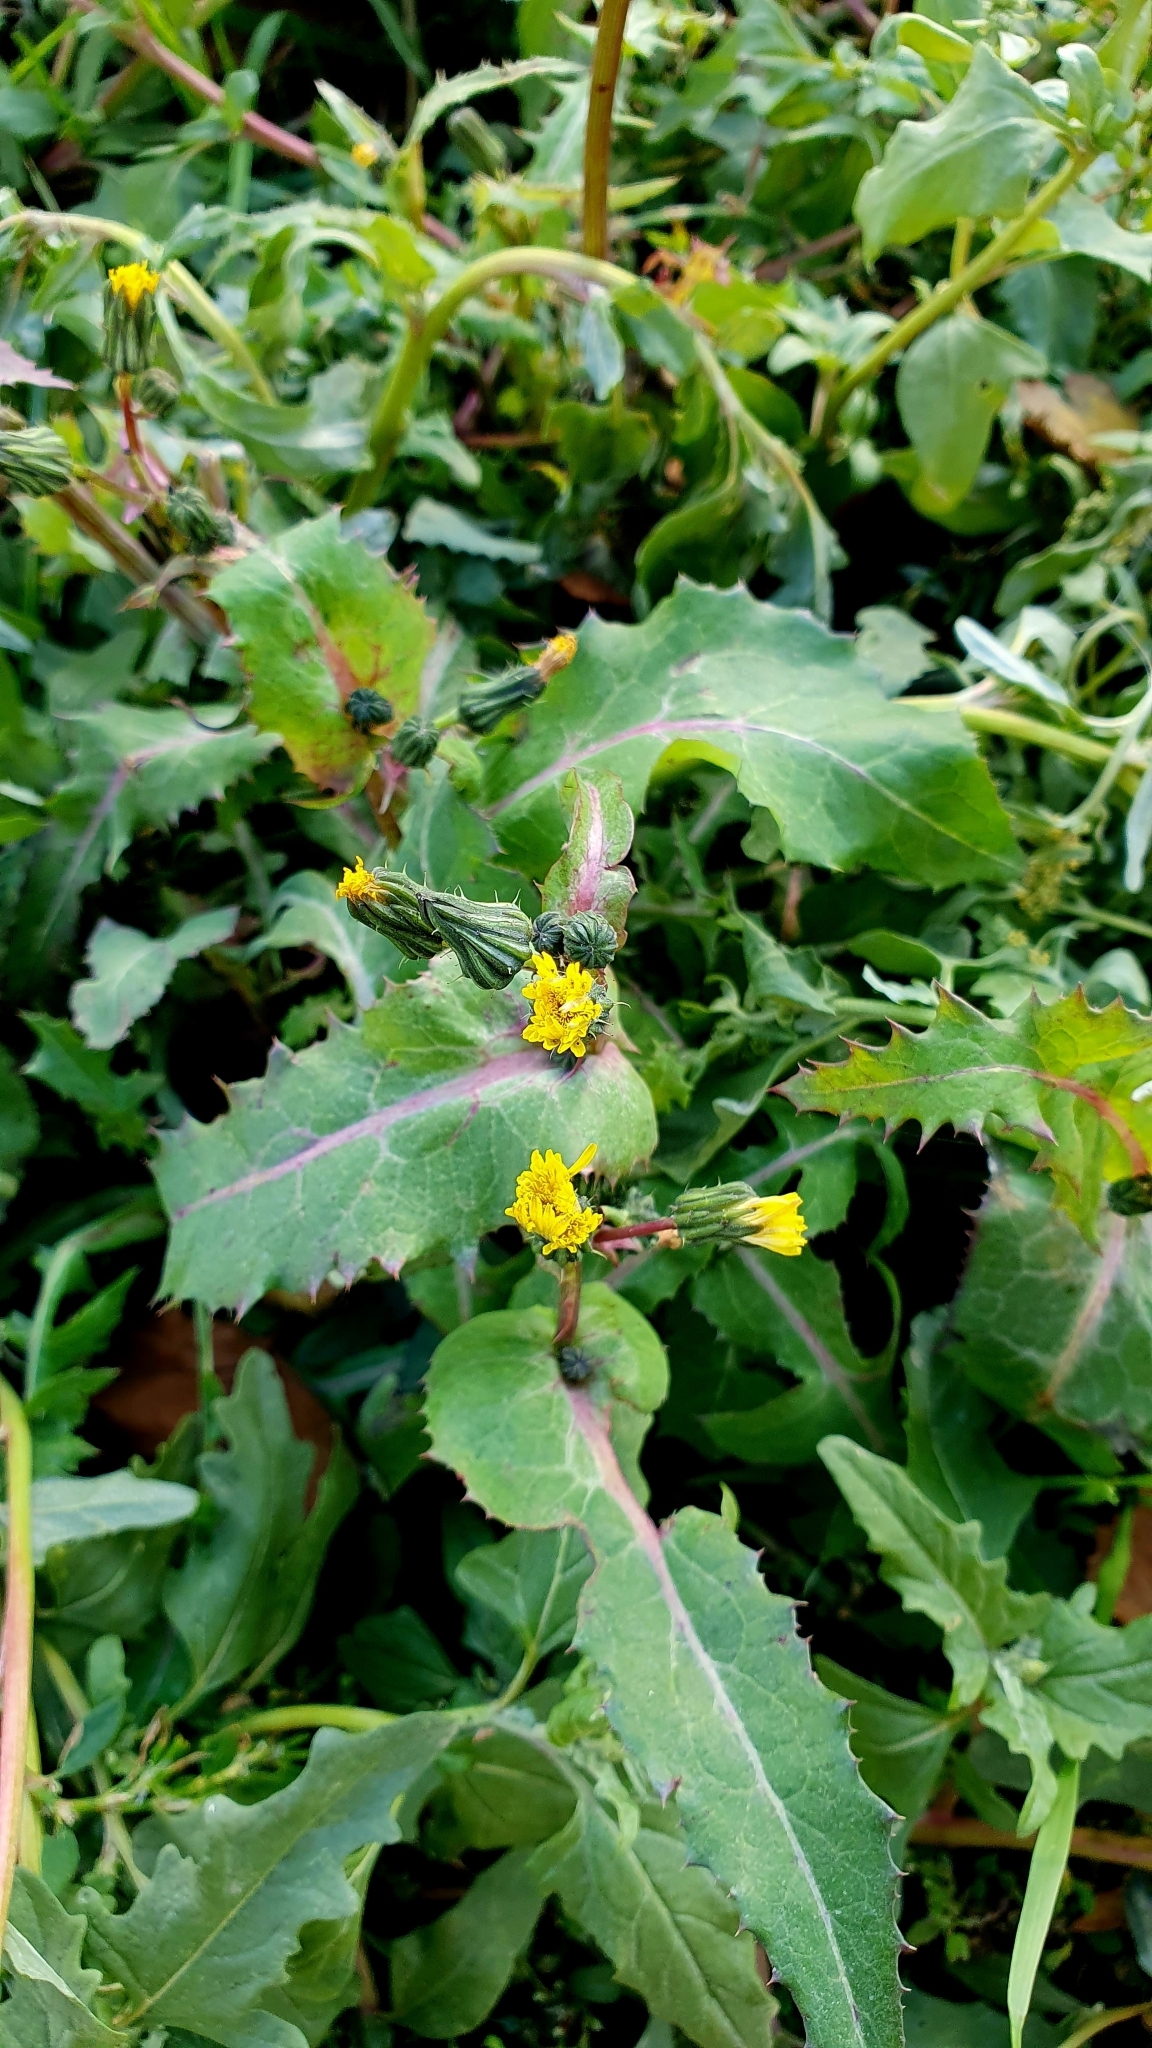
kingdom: Plantae
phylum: Tracheophyta
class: Magnoliopsida
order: Asterales
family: Asteraceae
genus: Sonchus
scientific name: Sonchus oleraceus
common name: Common sowthistle
